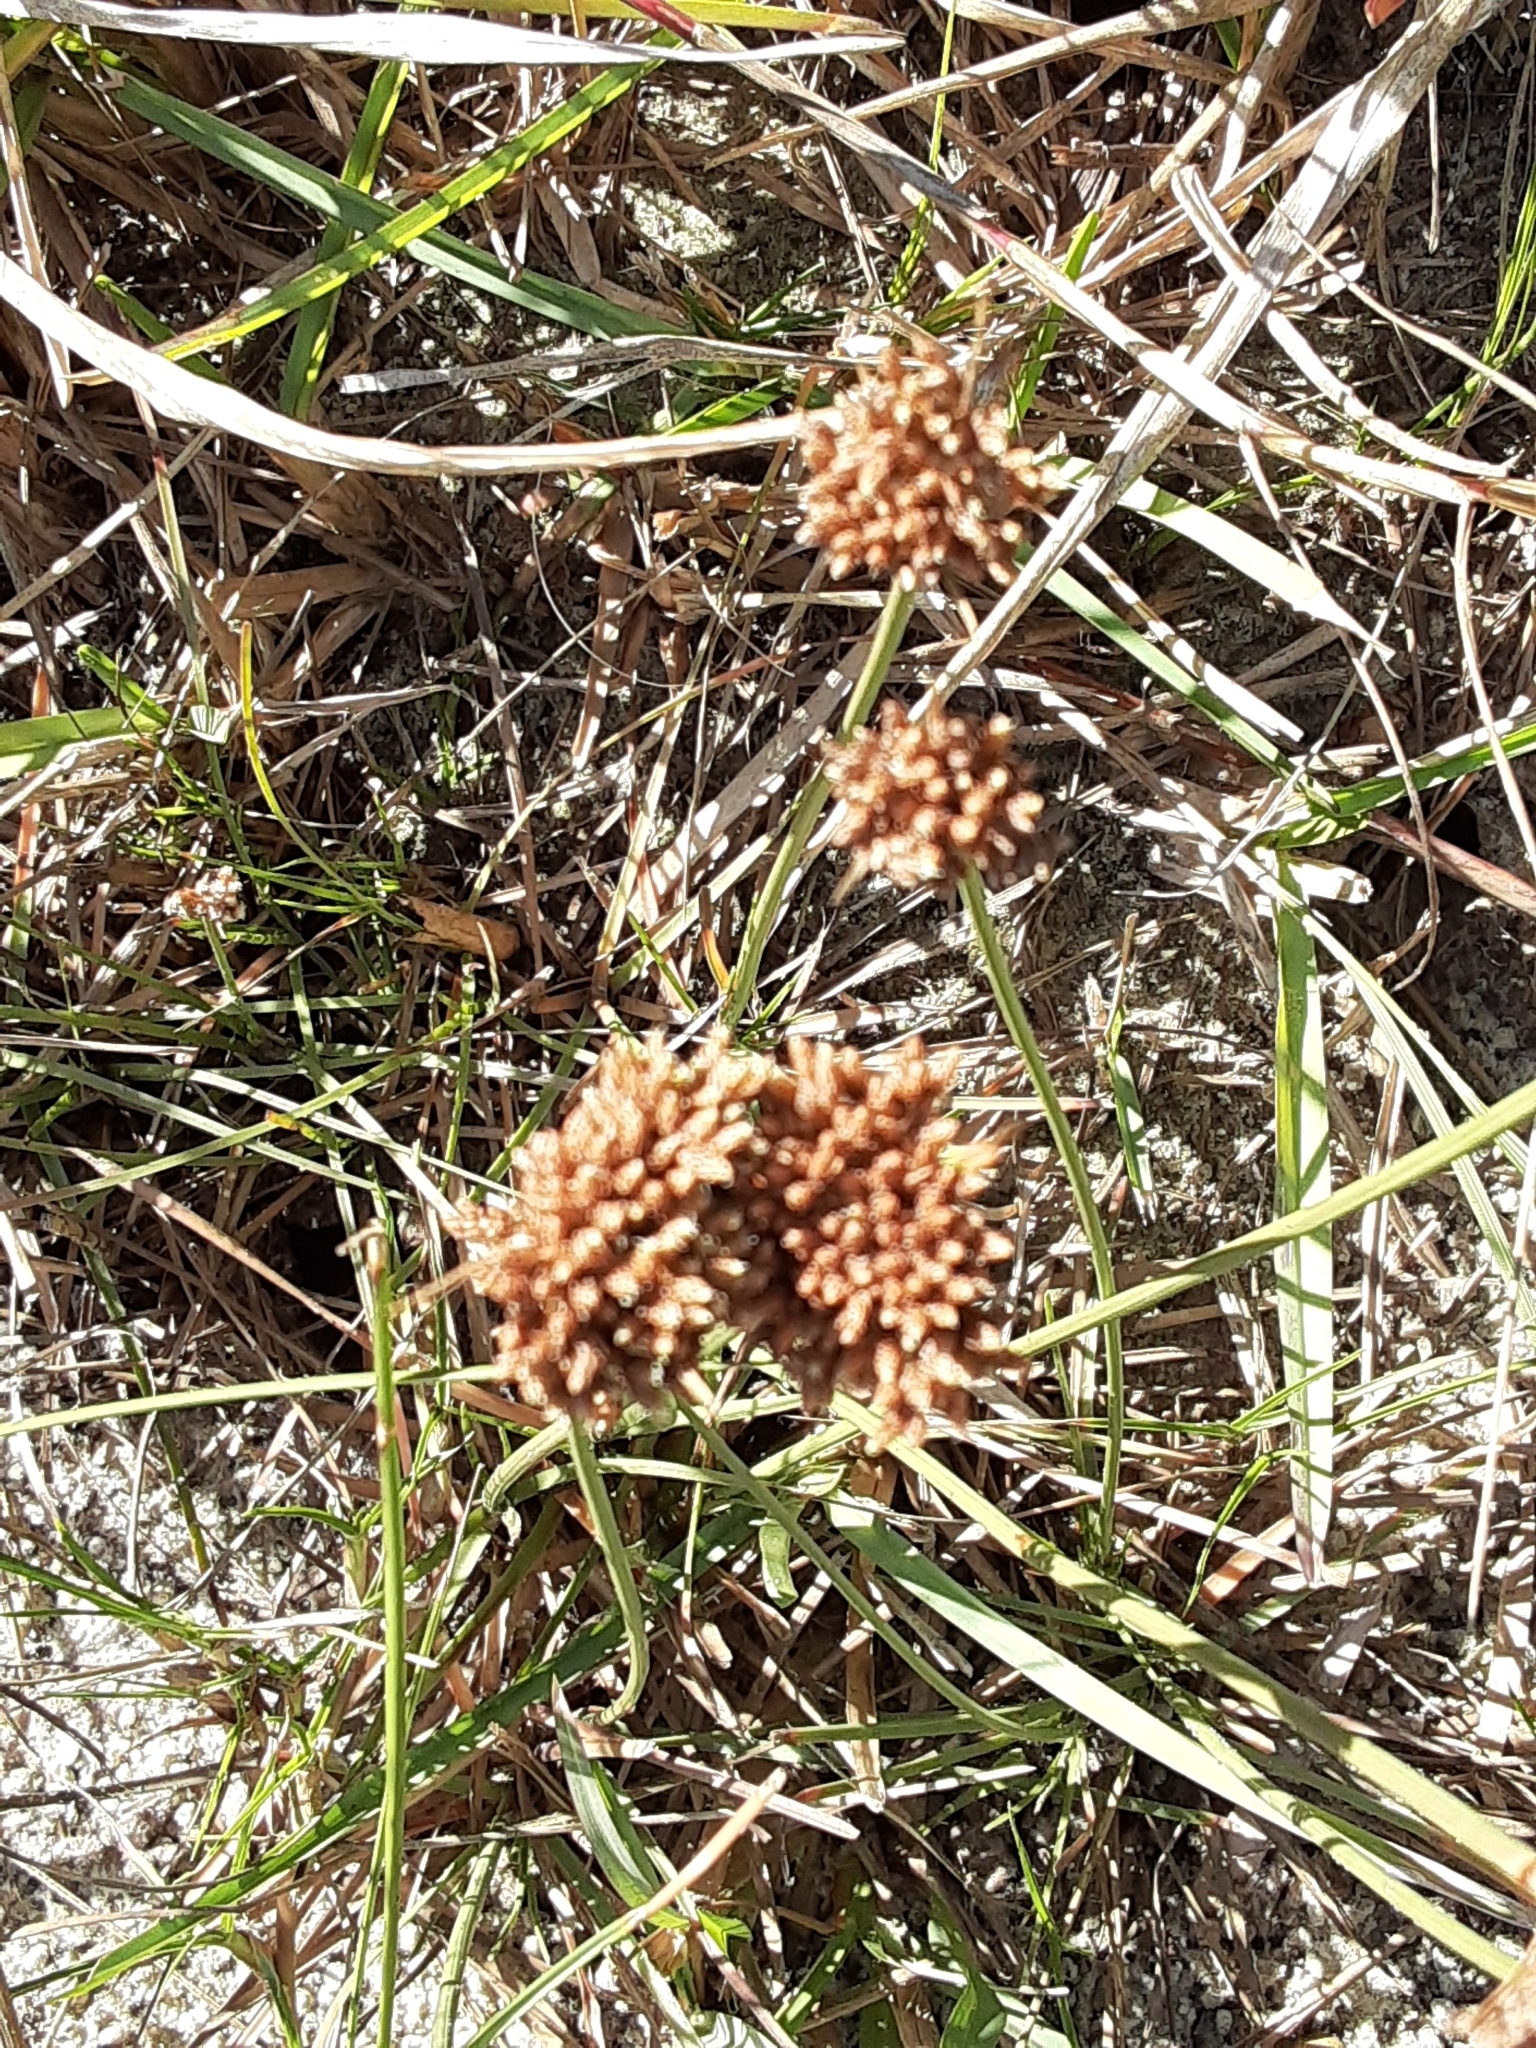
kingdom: Plantae
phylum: Tracheophyta
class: Liliopsida
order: Poales
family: Cyperaceae
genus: Fimbristylis
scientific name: Fimbristylis cymosa
